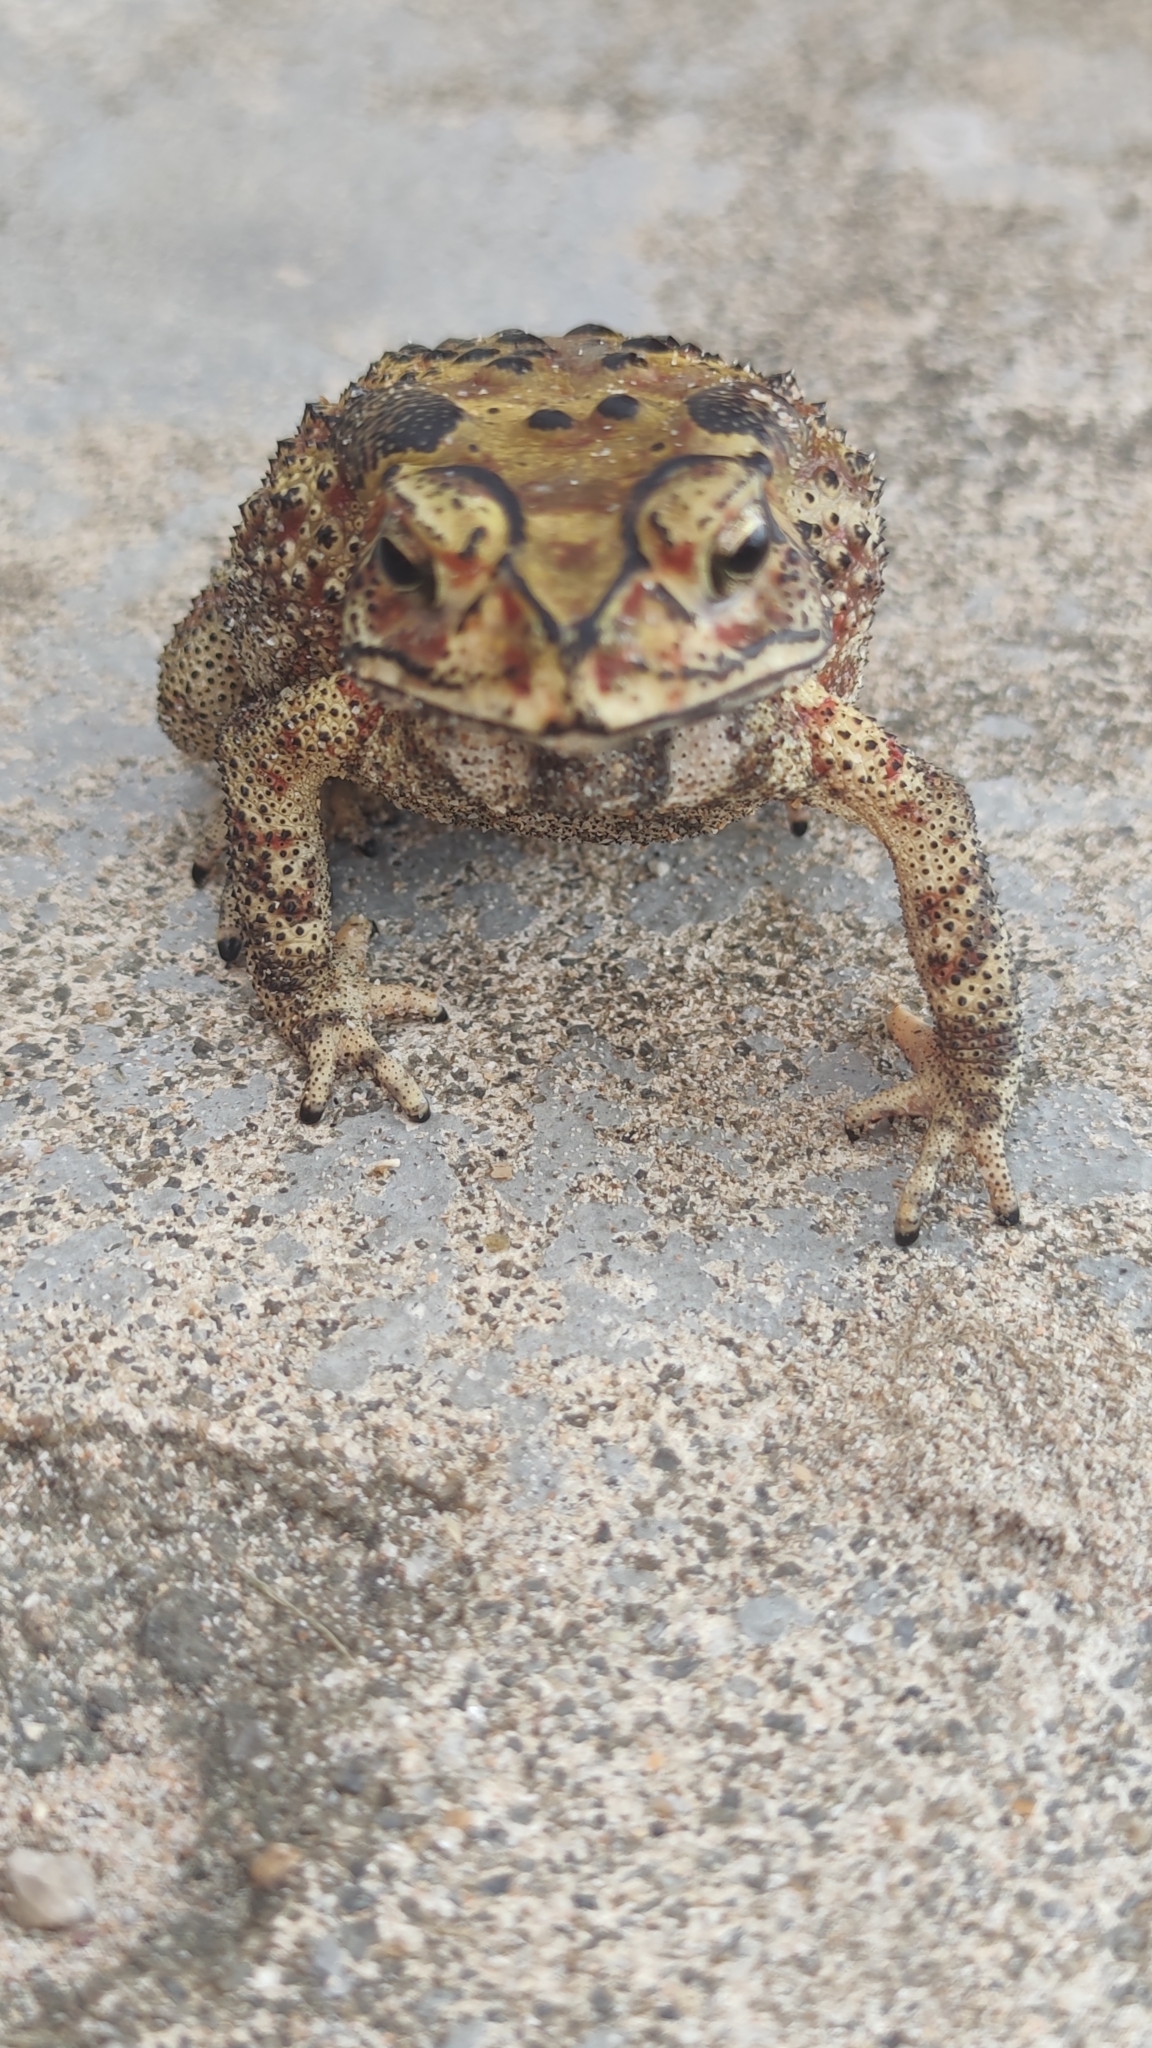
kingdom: Animalia
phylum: Chordata
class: Amphibia
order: Anura
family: Bufonidae
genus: Duttaphrynus
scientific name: Duttaphrynus melanostictus
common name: Common sunda toad
